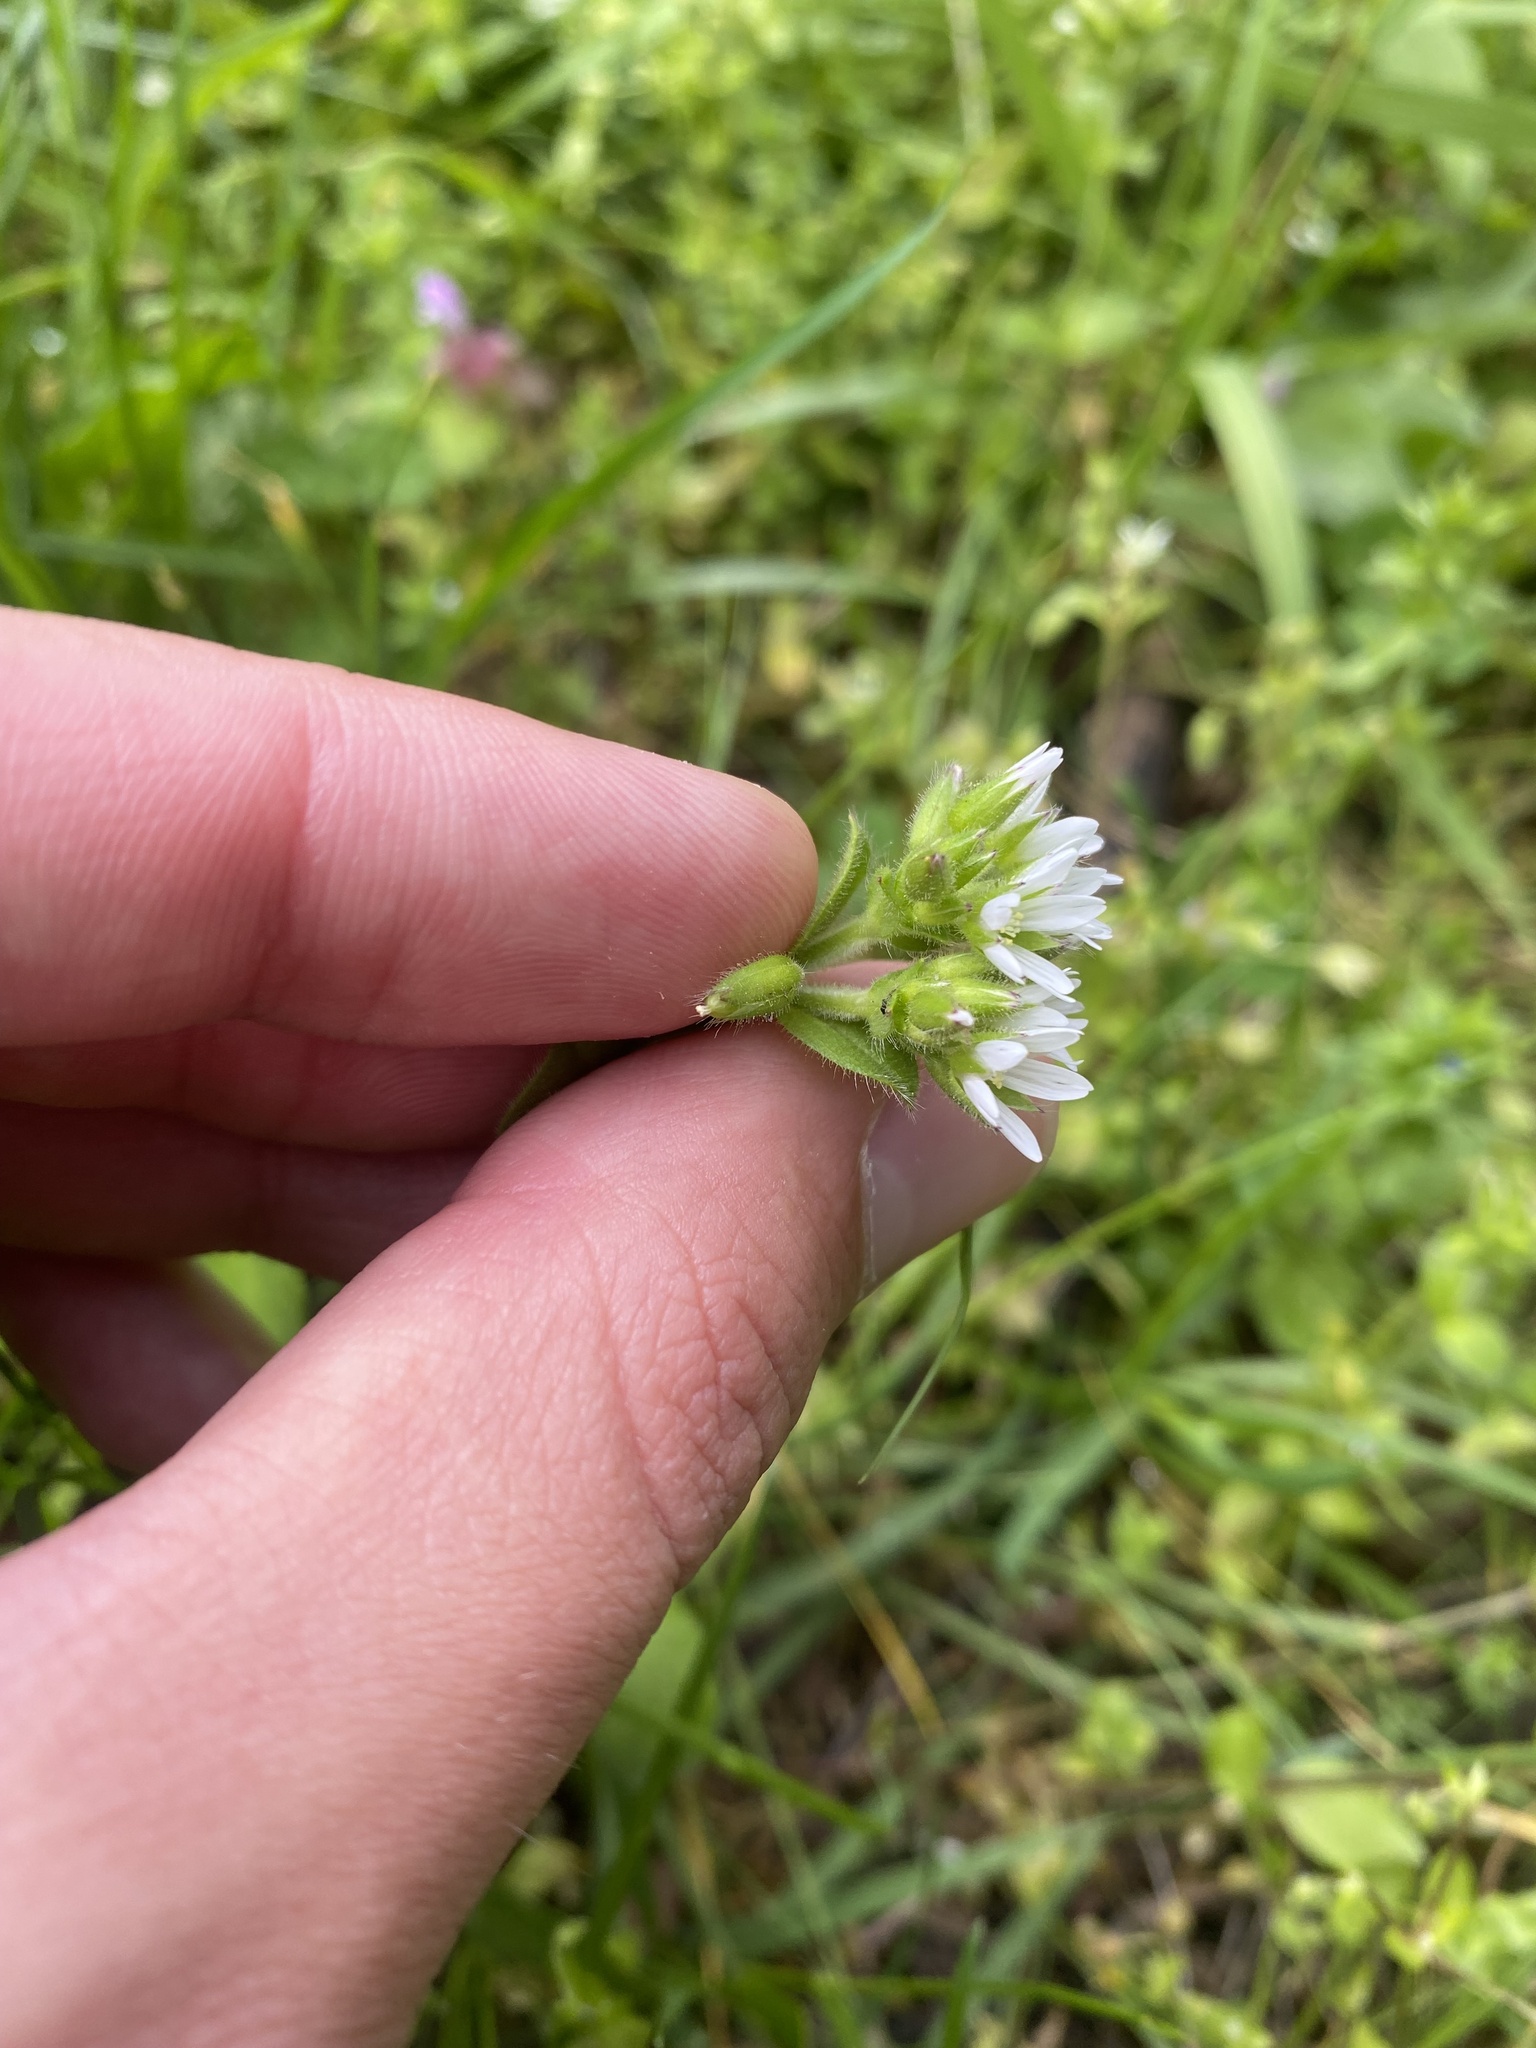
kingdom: Plantae
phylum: Tracheophyta
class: Magnoliopsida
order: Caryophyllales
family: Caryophyllaceae
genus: Cerastium
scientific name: Cerastium glomeratum
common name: Sticky chickweed
